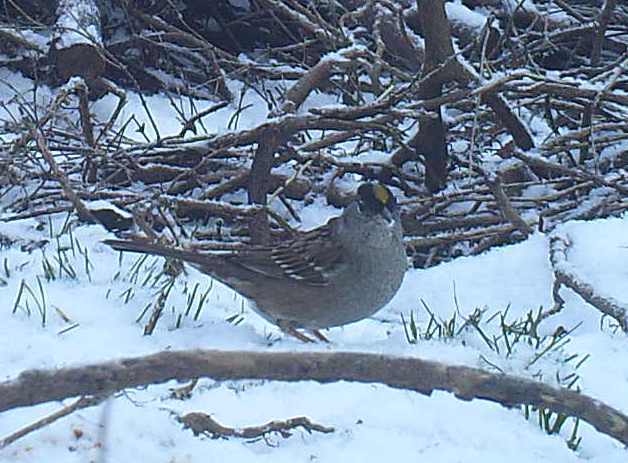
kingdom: Animalia
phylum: Chordata
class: Aves
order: Passeriformes
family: Passerellidae
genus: Zonotrichia
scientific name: Zonotrichia atricapilla
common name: Golden-crowned sparrow
